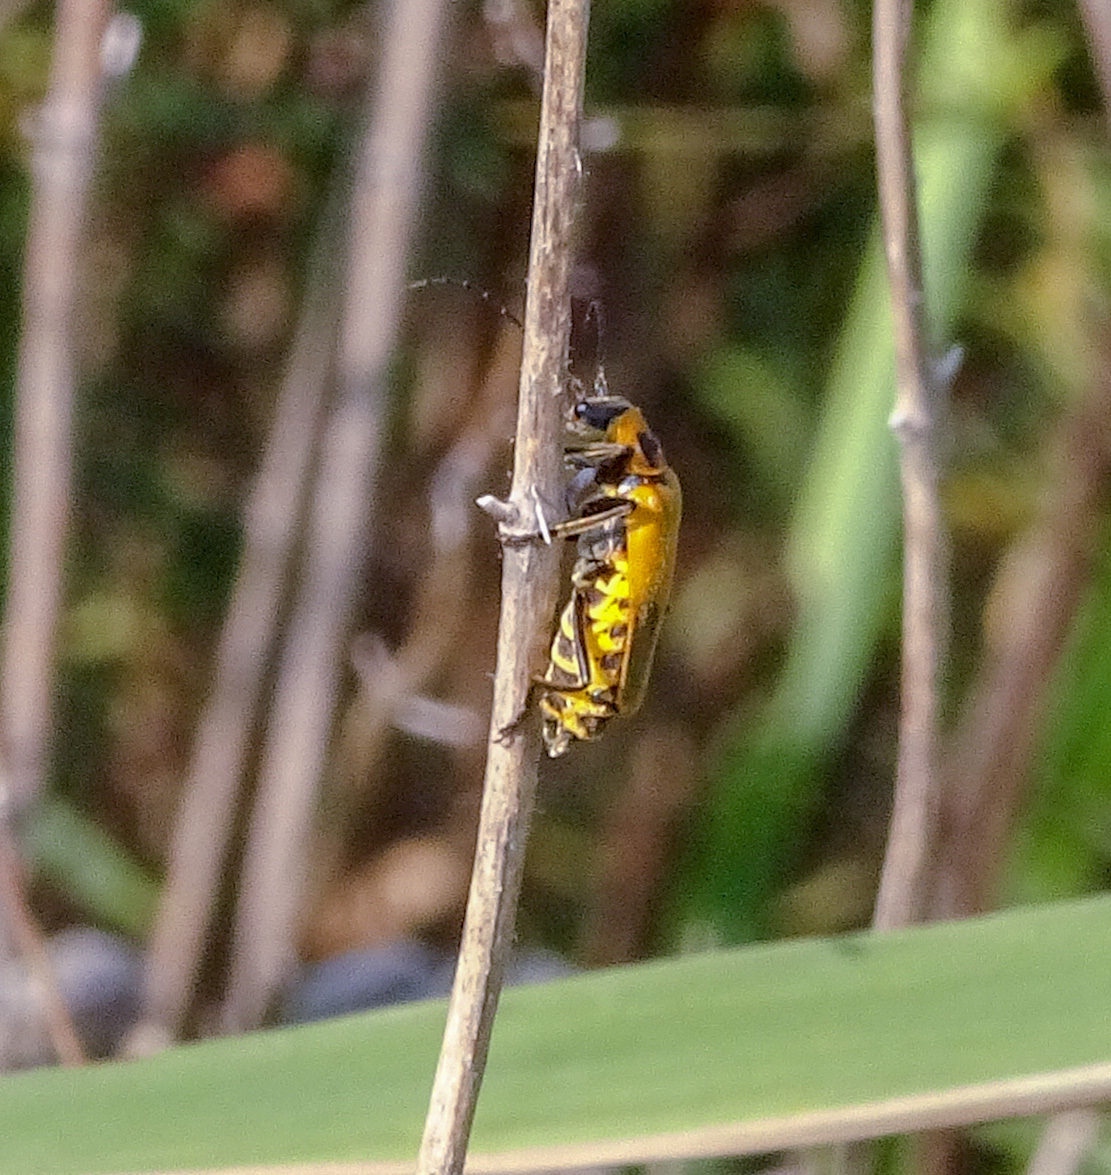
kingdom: Animalia
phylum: Arthropoda
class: Insecta
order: Coleoptera
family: Cantharidae
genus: Chauliognathus
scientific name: Chauliognathus pensylvanicus
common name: Goldenrod soldier beetle
